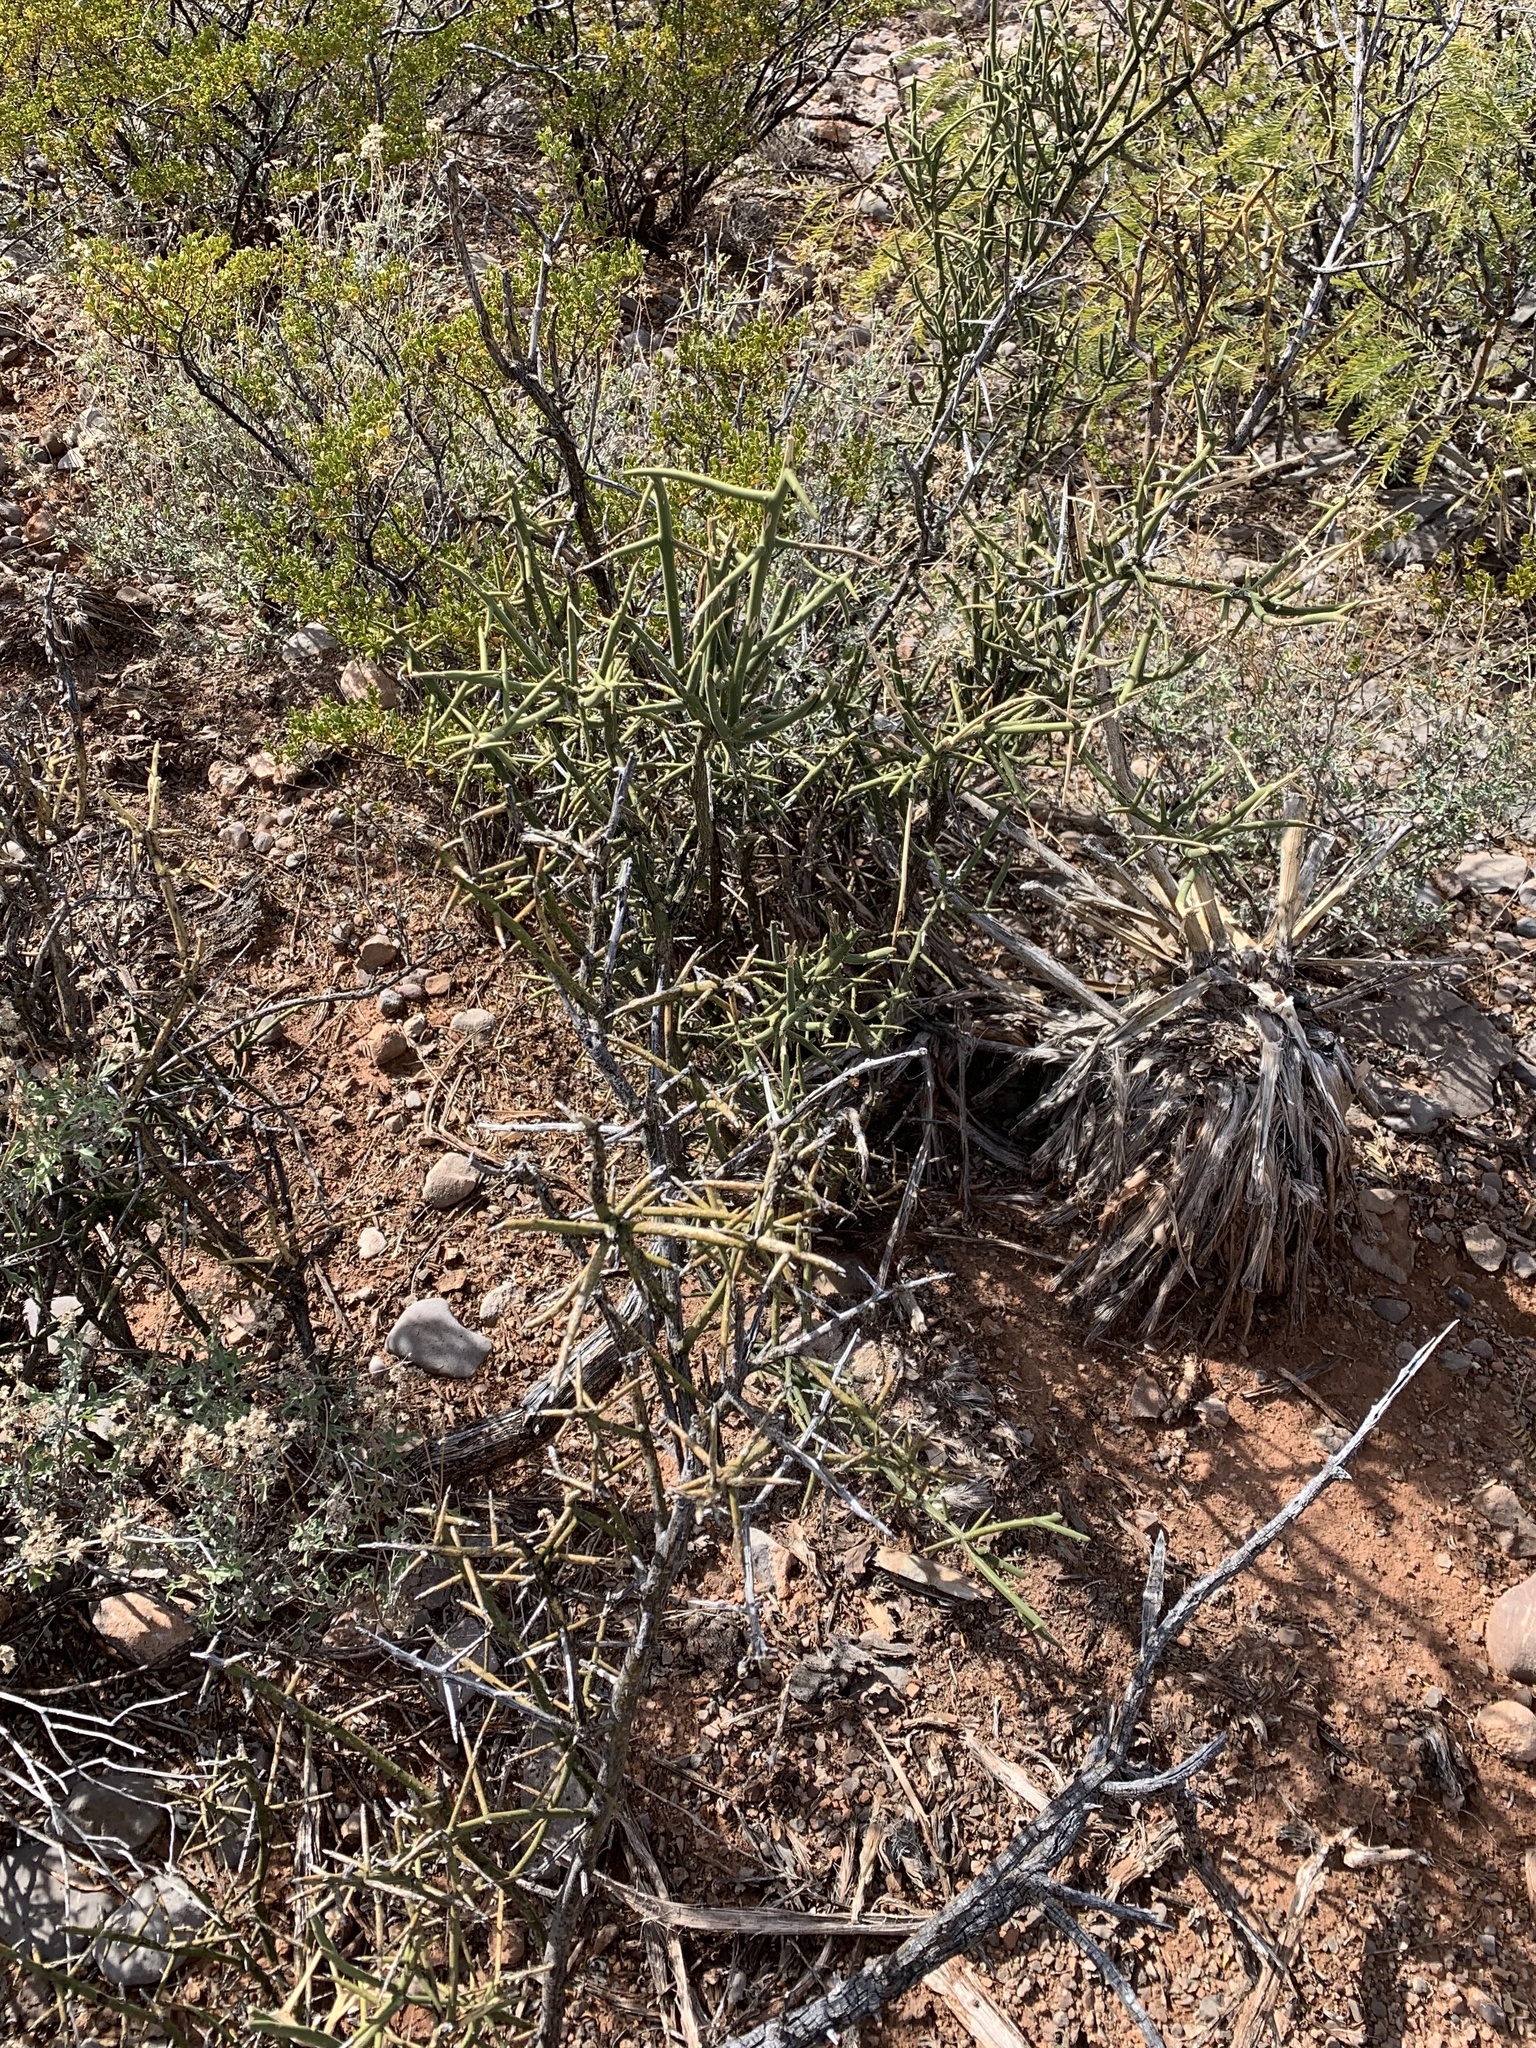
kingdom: Plantae
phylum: Tracheophyta
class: Magnoliopsida
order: Brassicales
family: Koeberliniaceae
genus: Koeberlinia
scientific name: Koeberlinia spinosa
